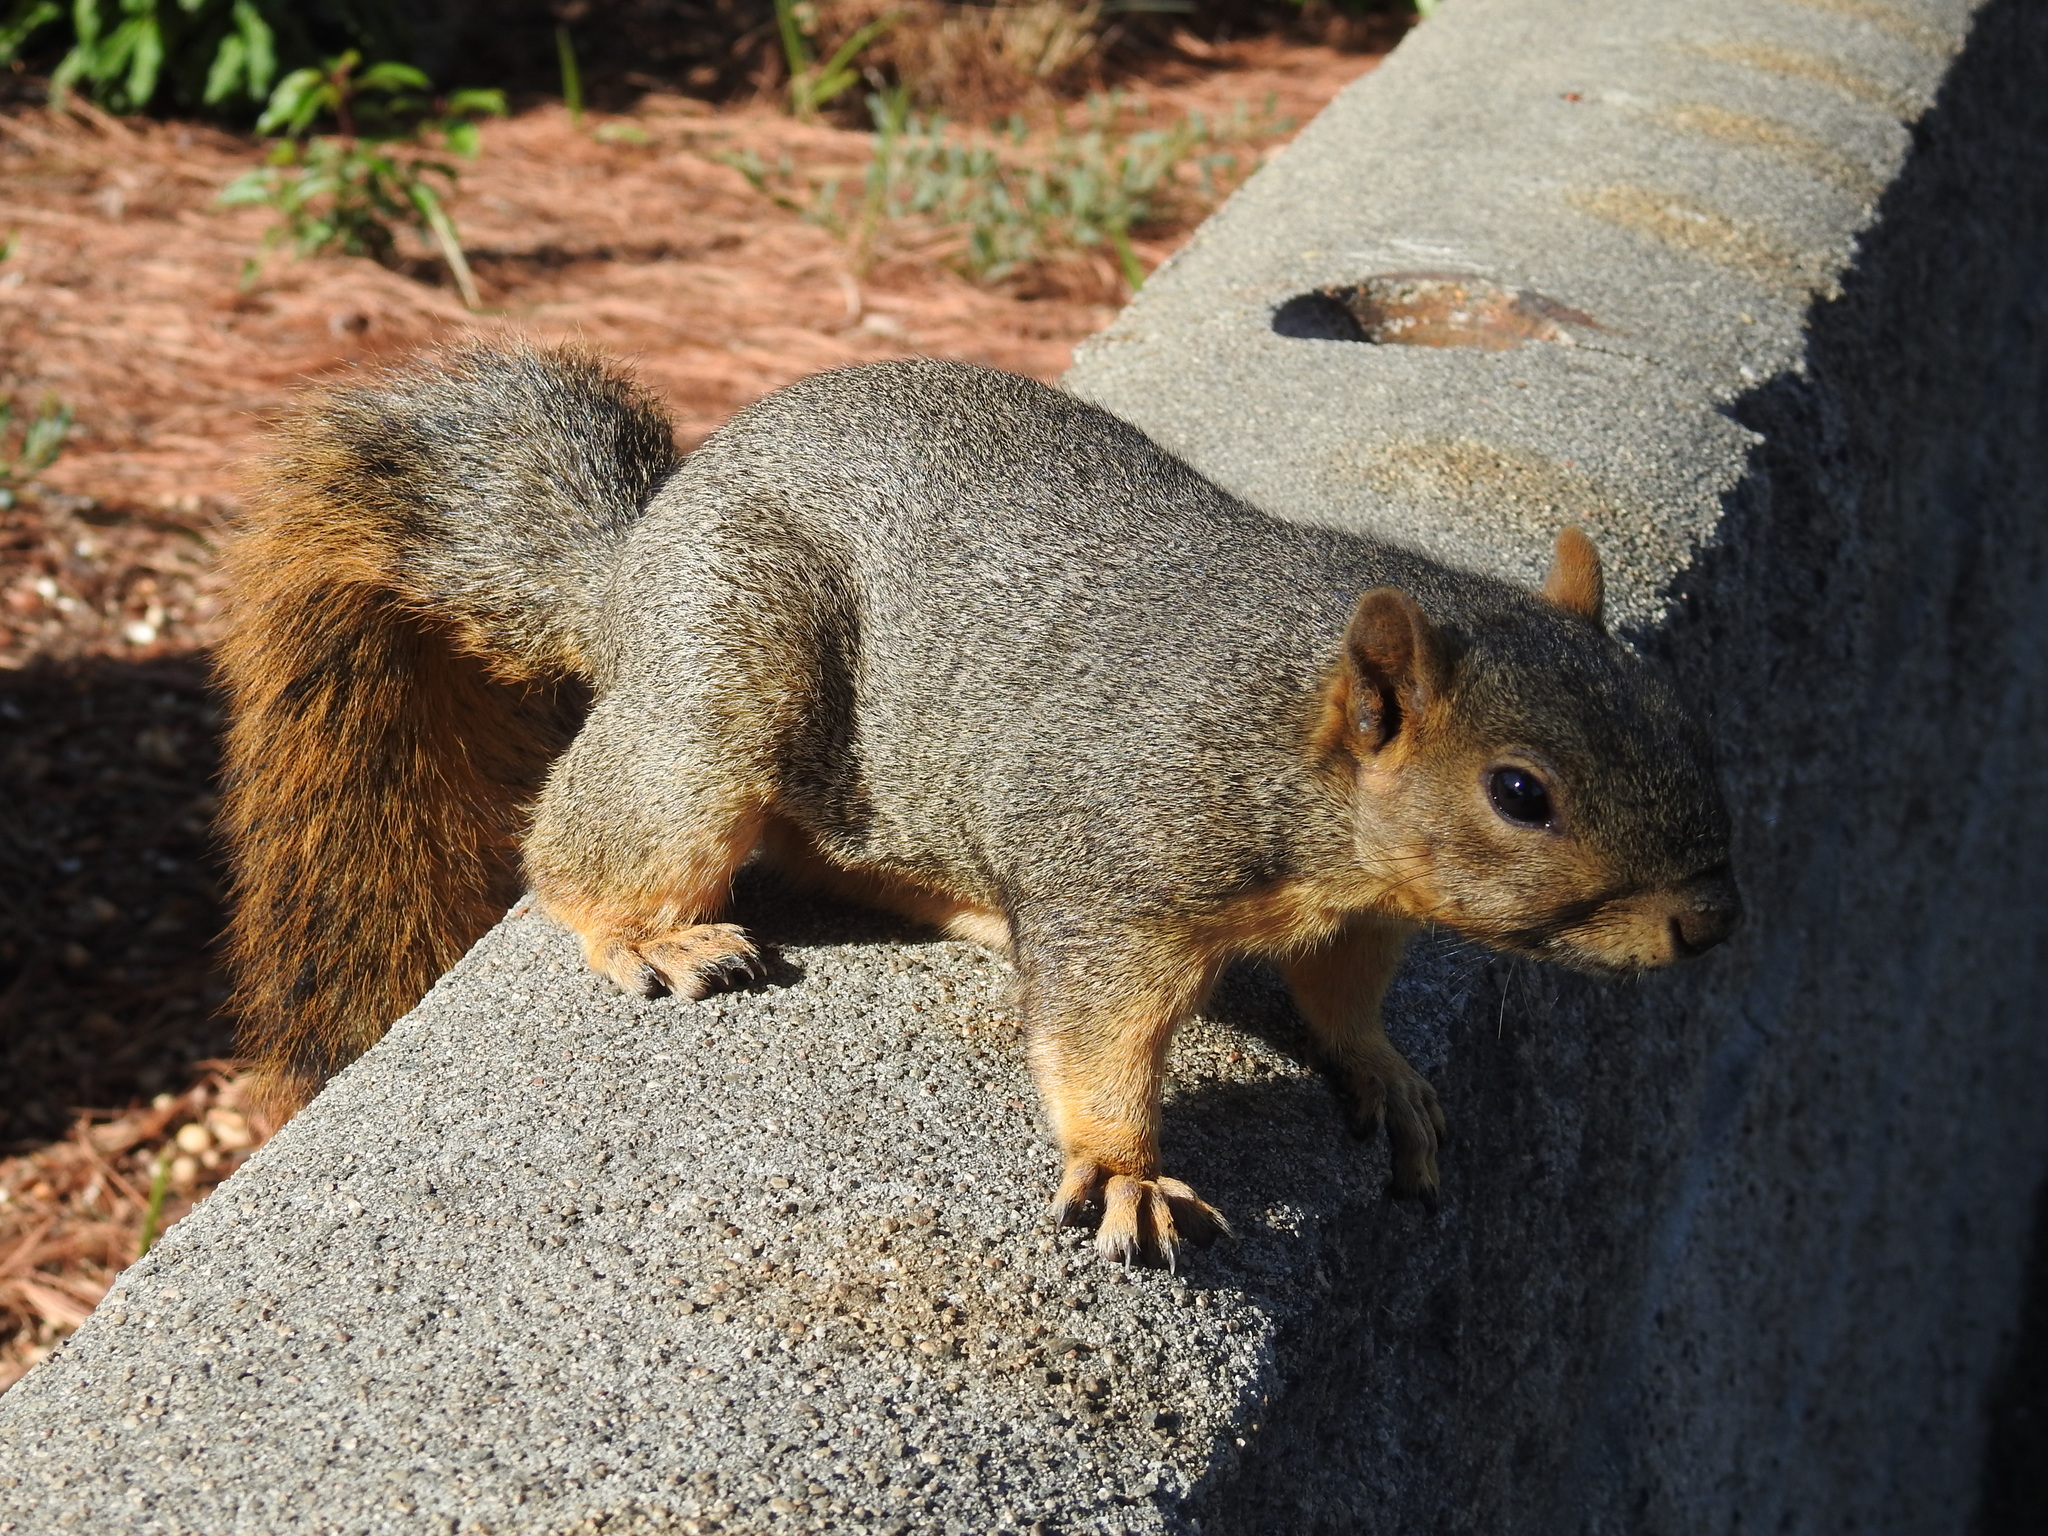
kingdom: Animalia
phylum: Chordata
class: Mammalia
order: Rodentia
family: Sciuridae
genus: Sciurus
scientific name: Sciurus niger
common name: Fox squirrel
